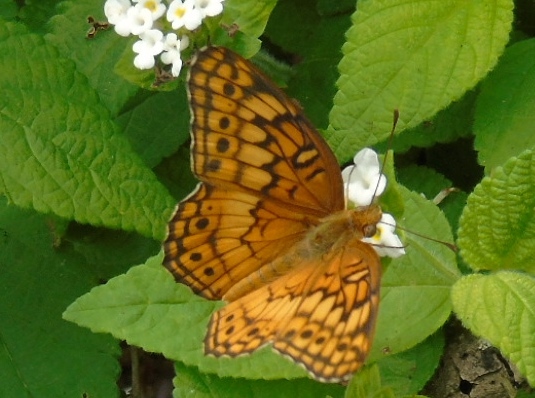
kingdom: Animalia
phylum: Arthropoda
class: Insecta
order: Lepidoptera
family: Nymphalidae
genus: Euptoieta
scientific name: Euptoieta claudia
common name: Variegated fritillary
